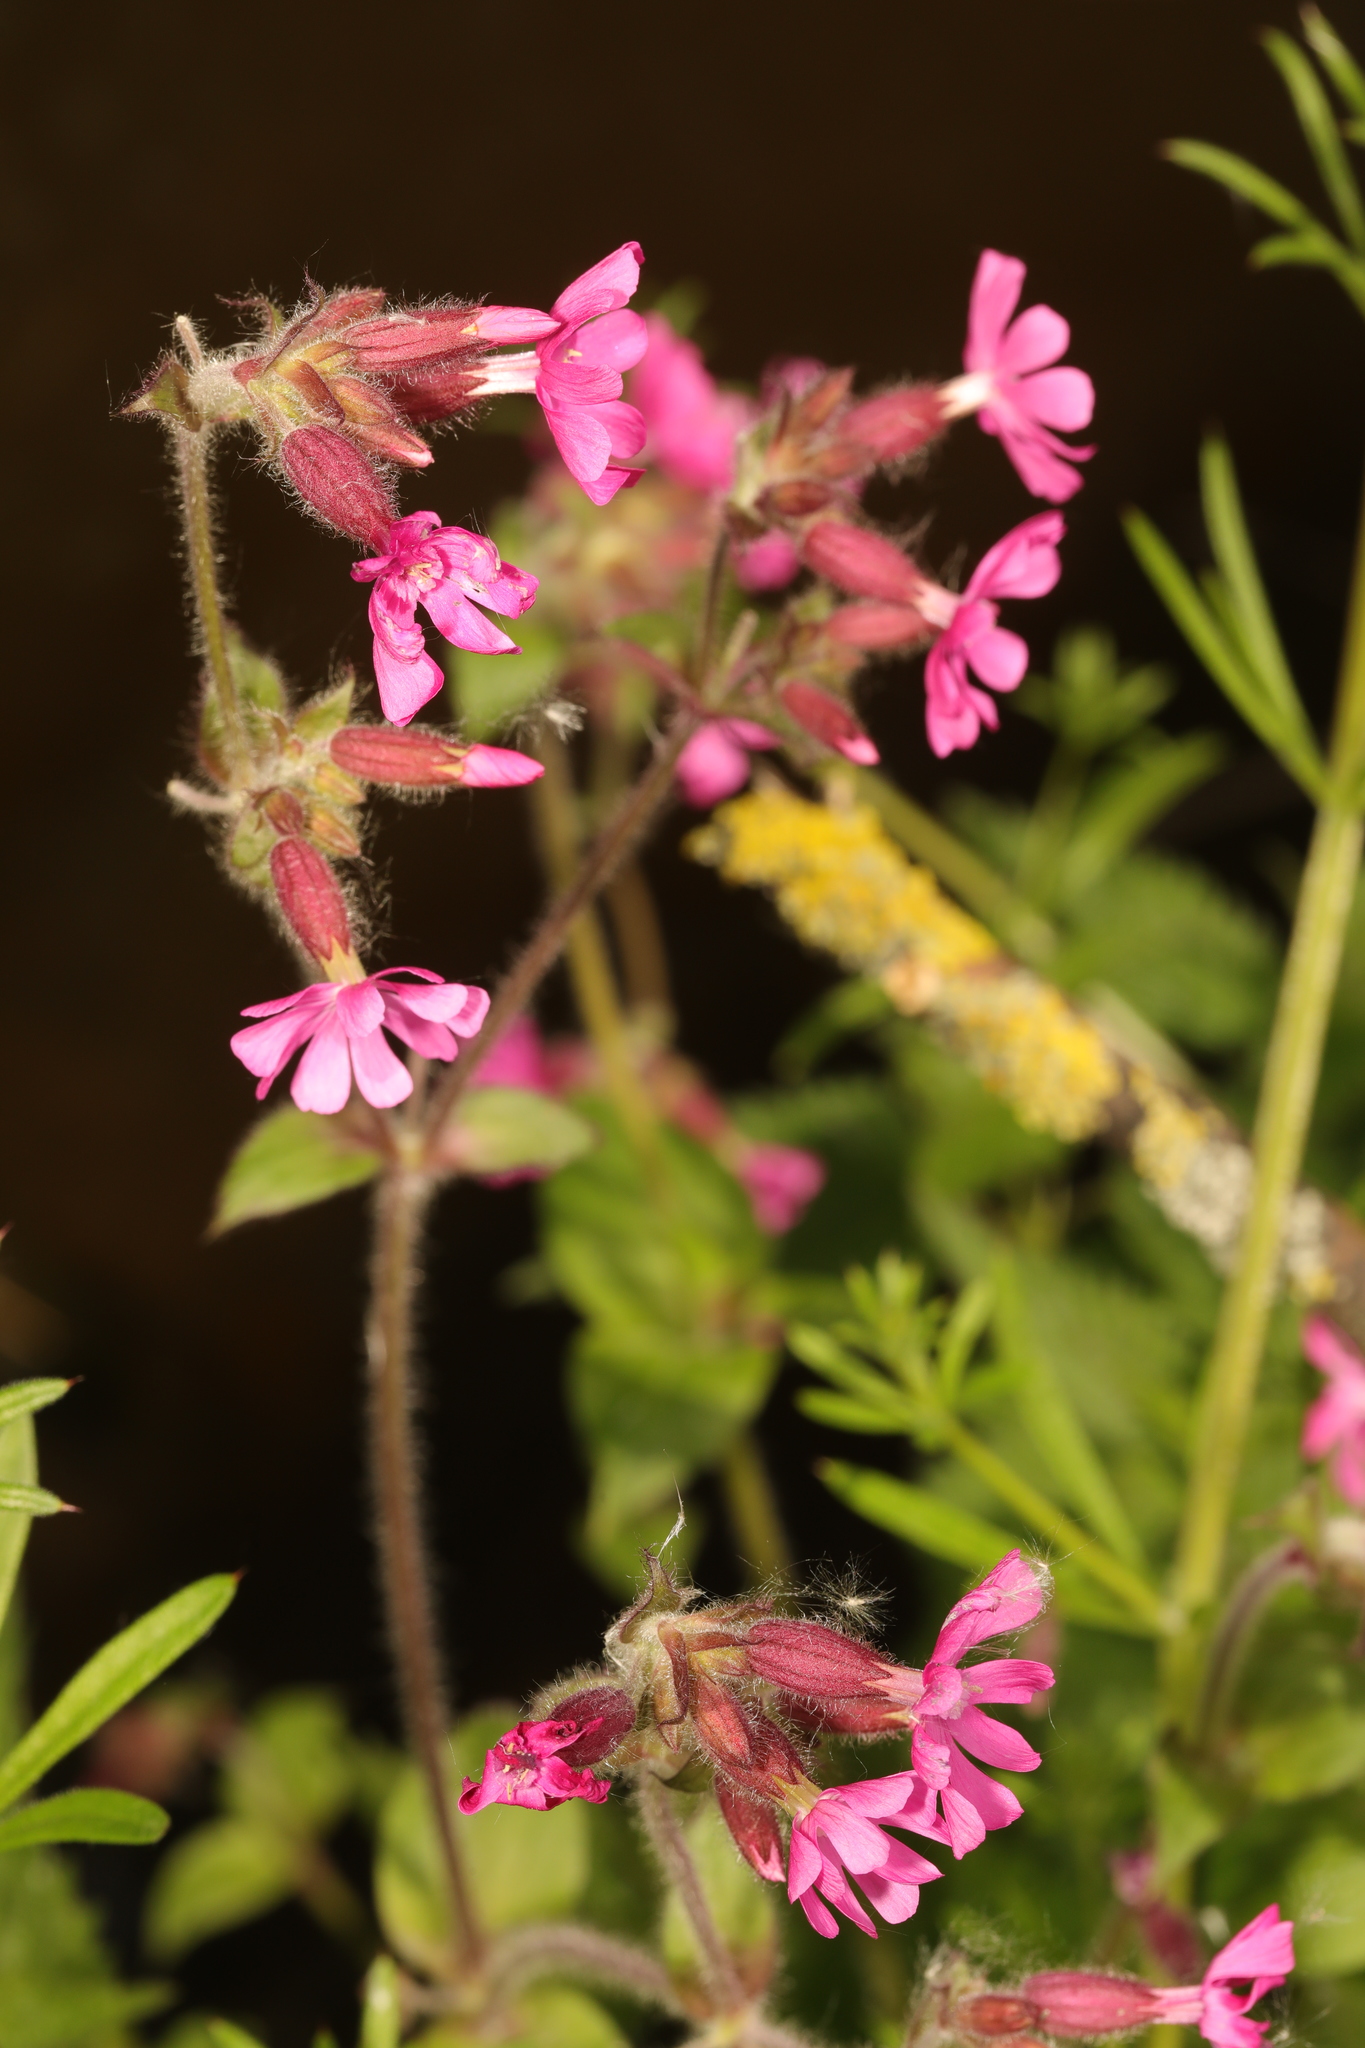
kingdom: Plantae
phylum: Tracheophyta
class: Magnoliopsida
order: Caryophyllales
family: Caryophyllaceae
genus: Silene
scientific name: Silene dioica
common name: Red campion
